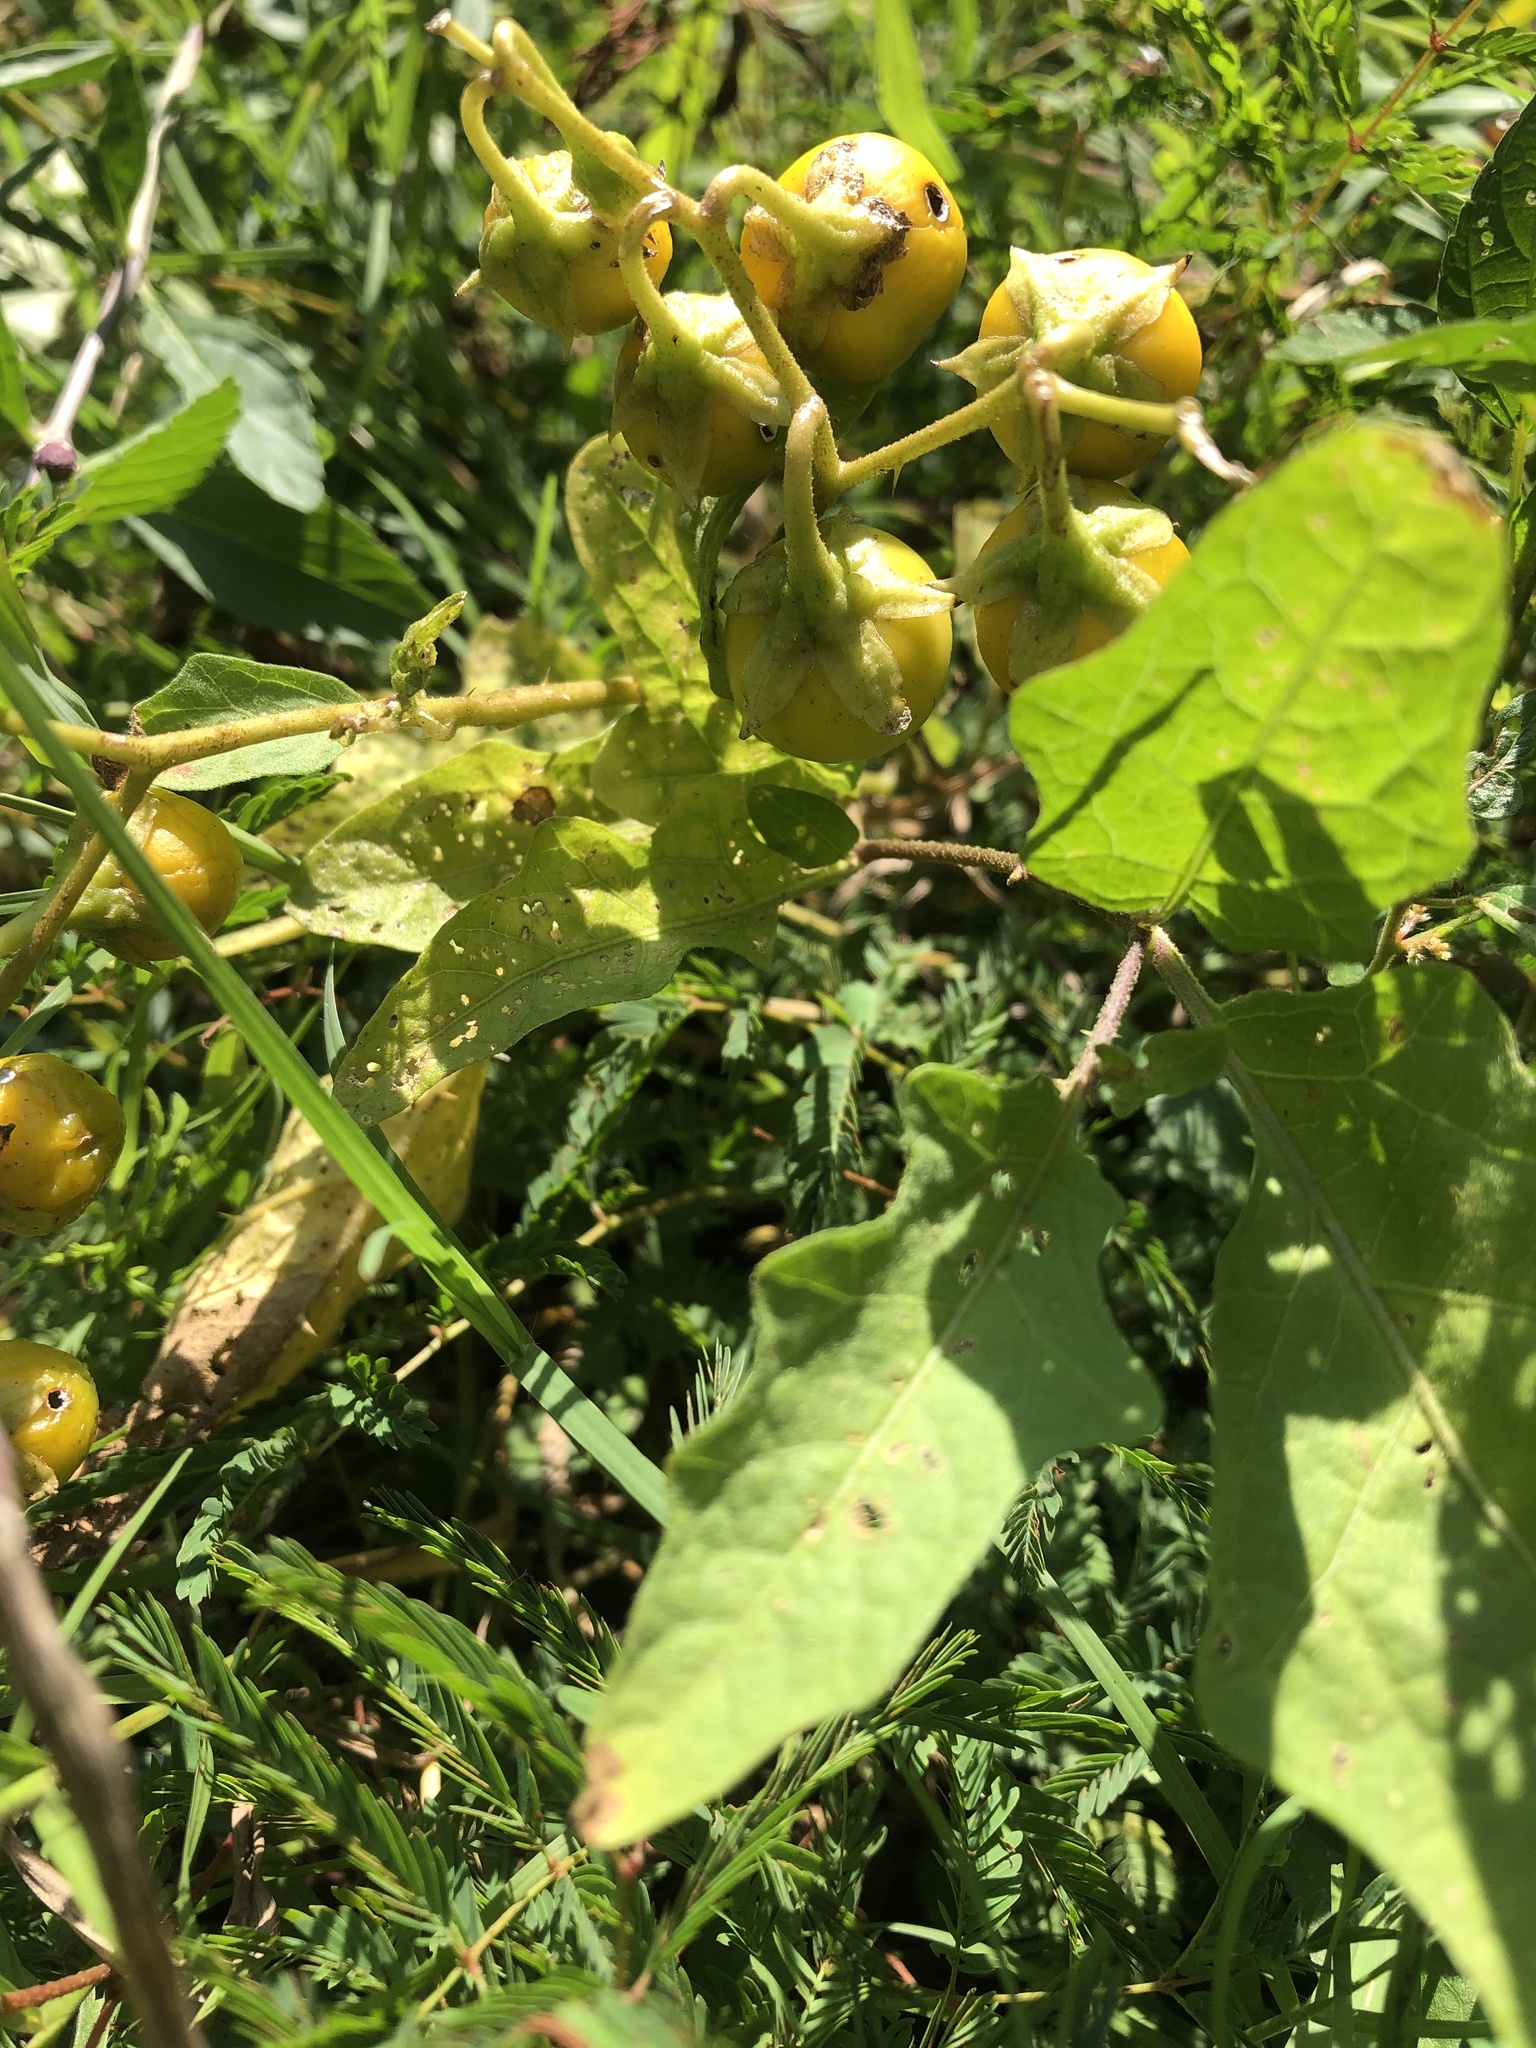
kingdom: Plantae
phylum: Tracheophyta
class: Magnoliopsida
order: Solanales
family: Solanaceae
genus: Solanum
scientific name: Solanum carolinense
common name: Horse-nettle
